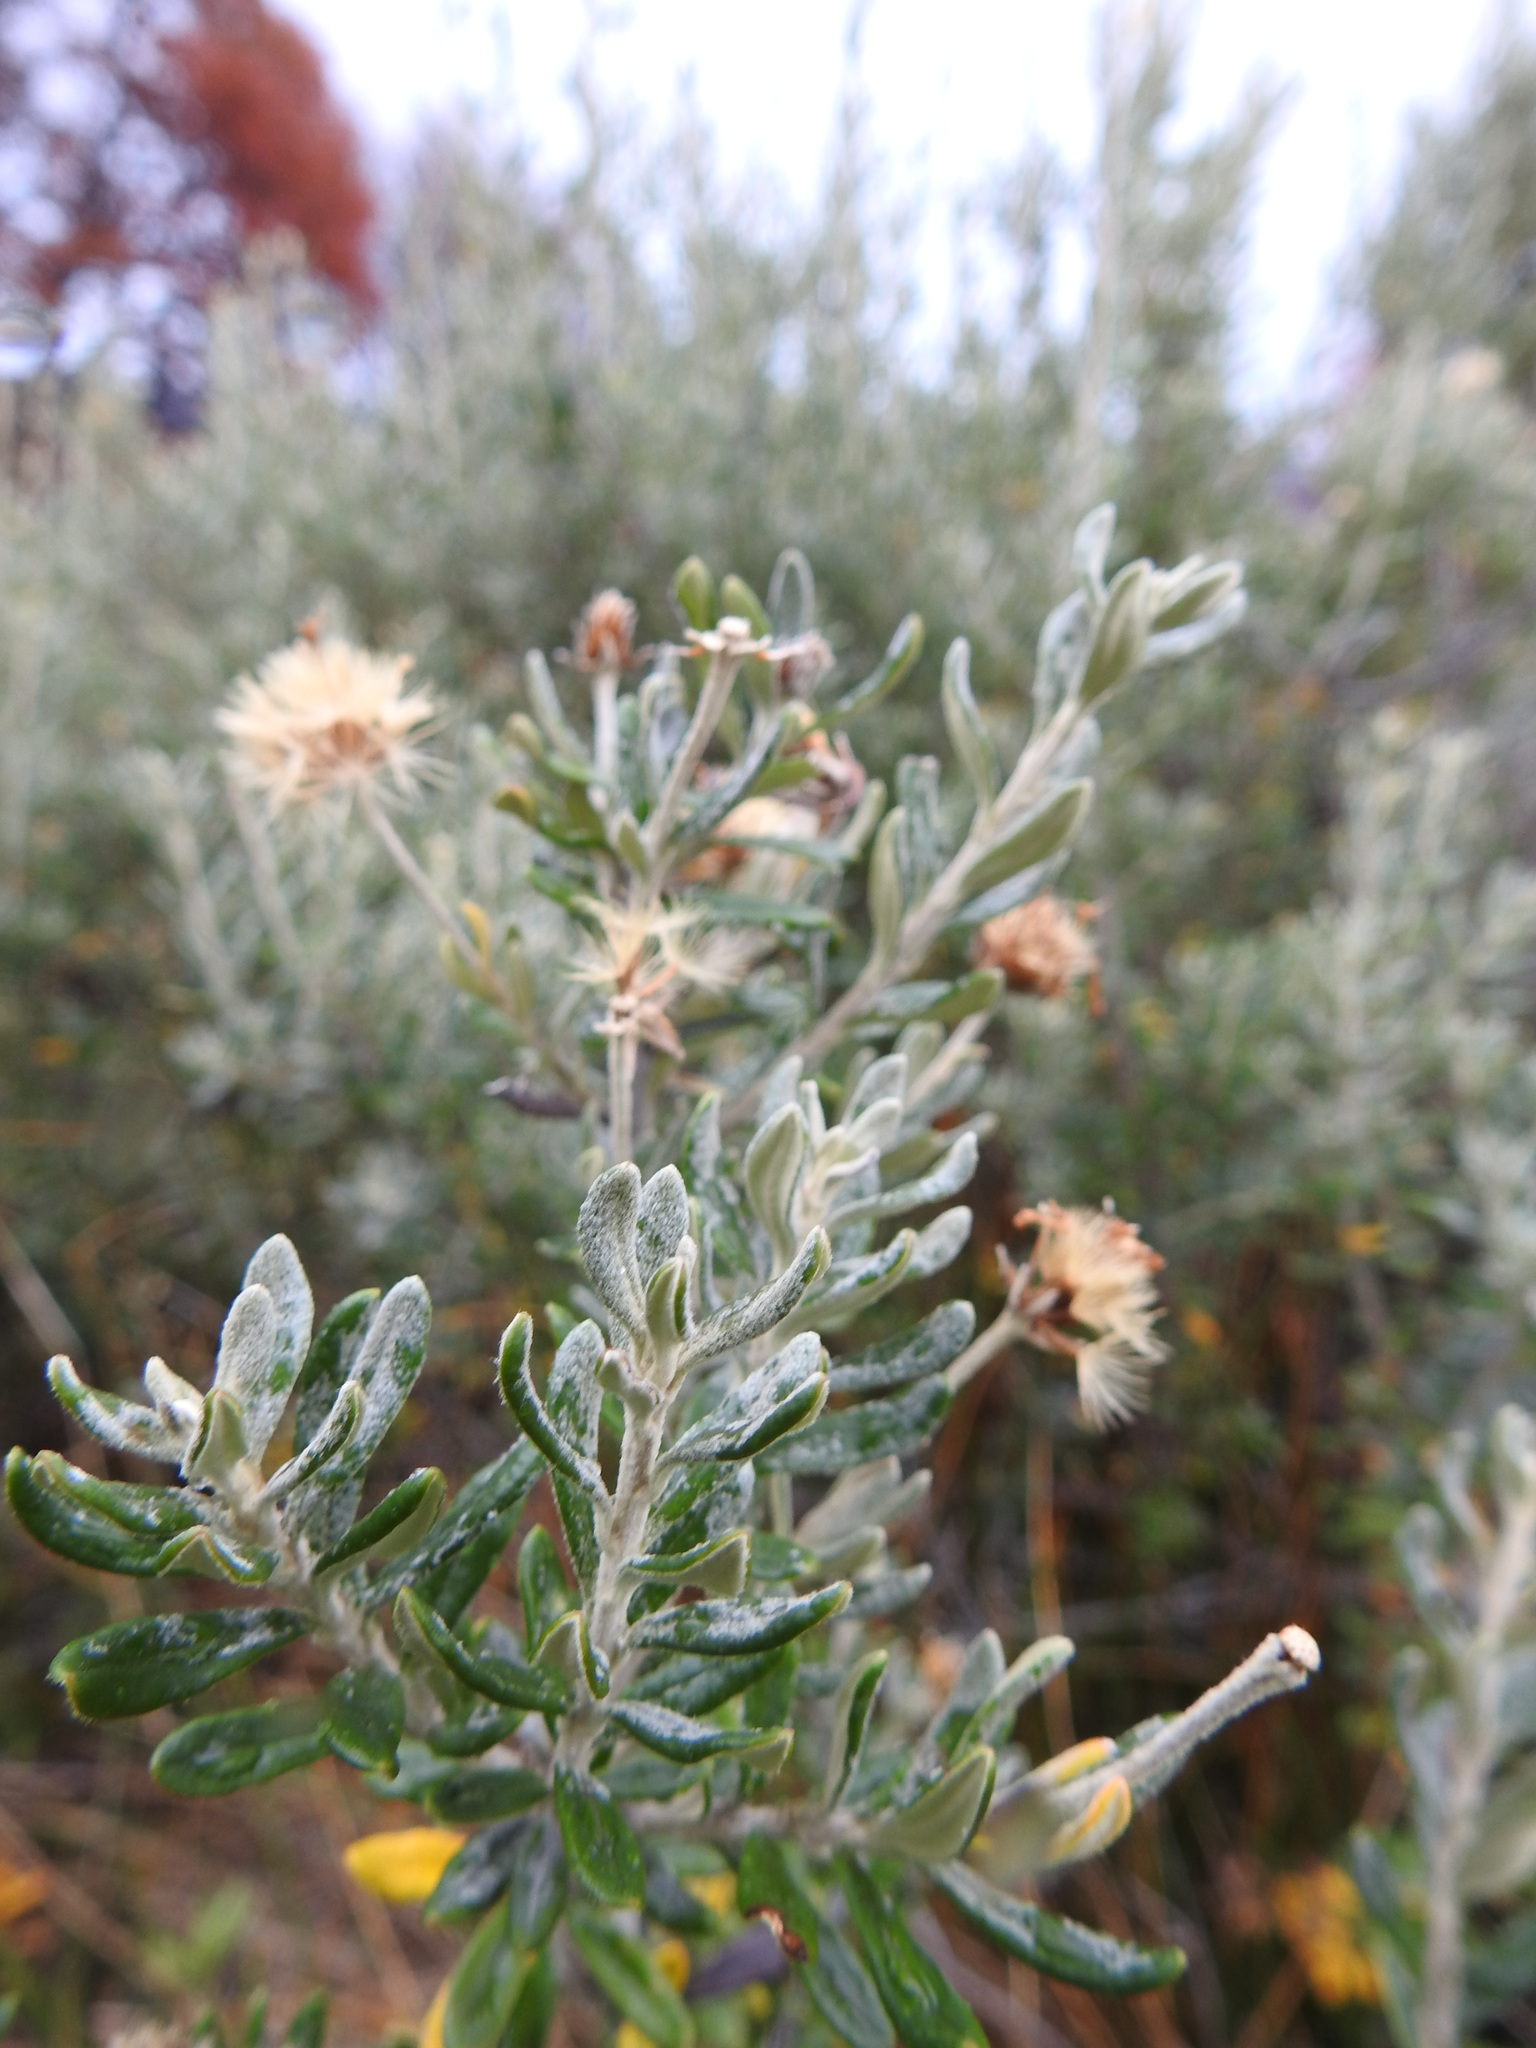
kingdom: Plantae
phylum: Tracheophyta
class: Magnoliopsida
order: Asterales
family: Asteraceae
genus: Chiliotrichum
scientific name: Chiliotrichum diffusum
